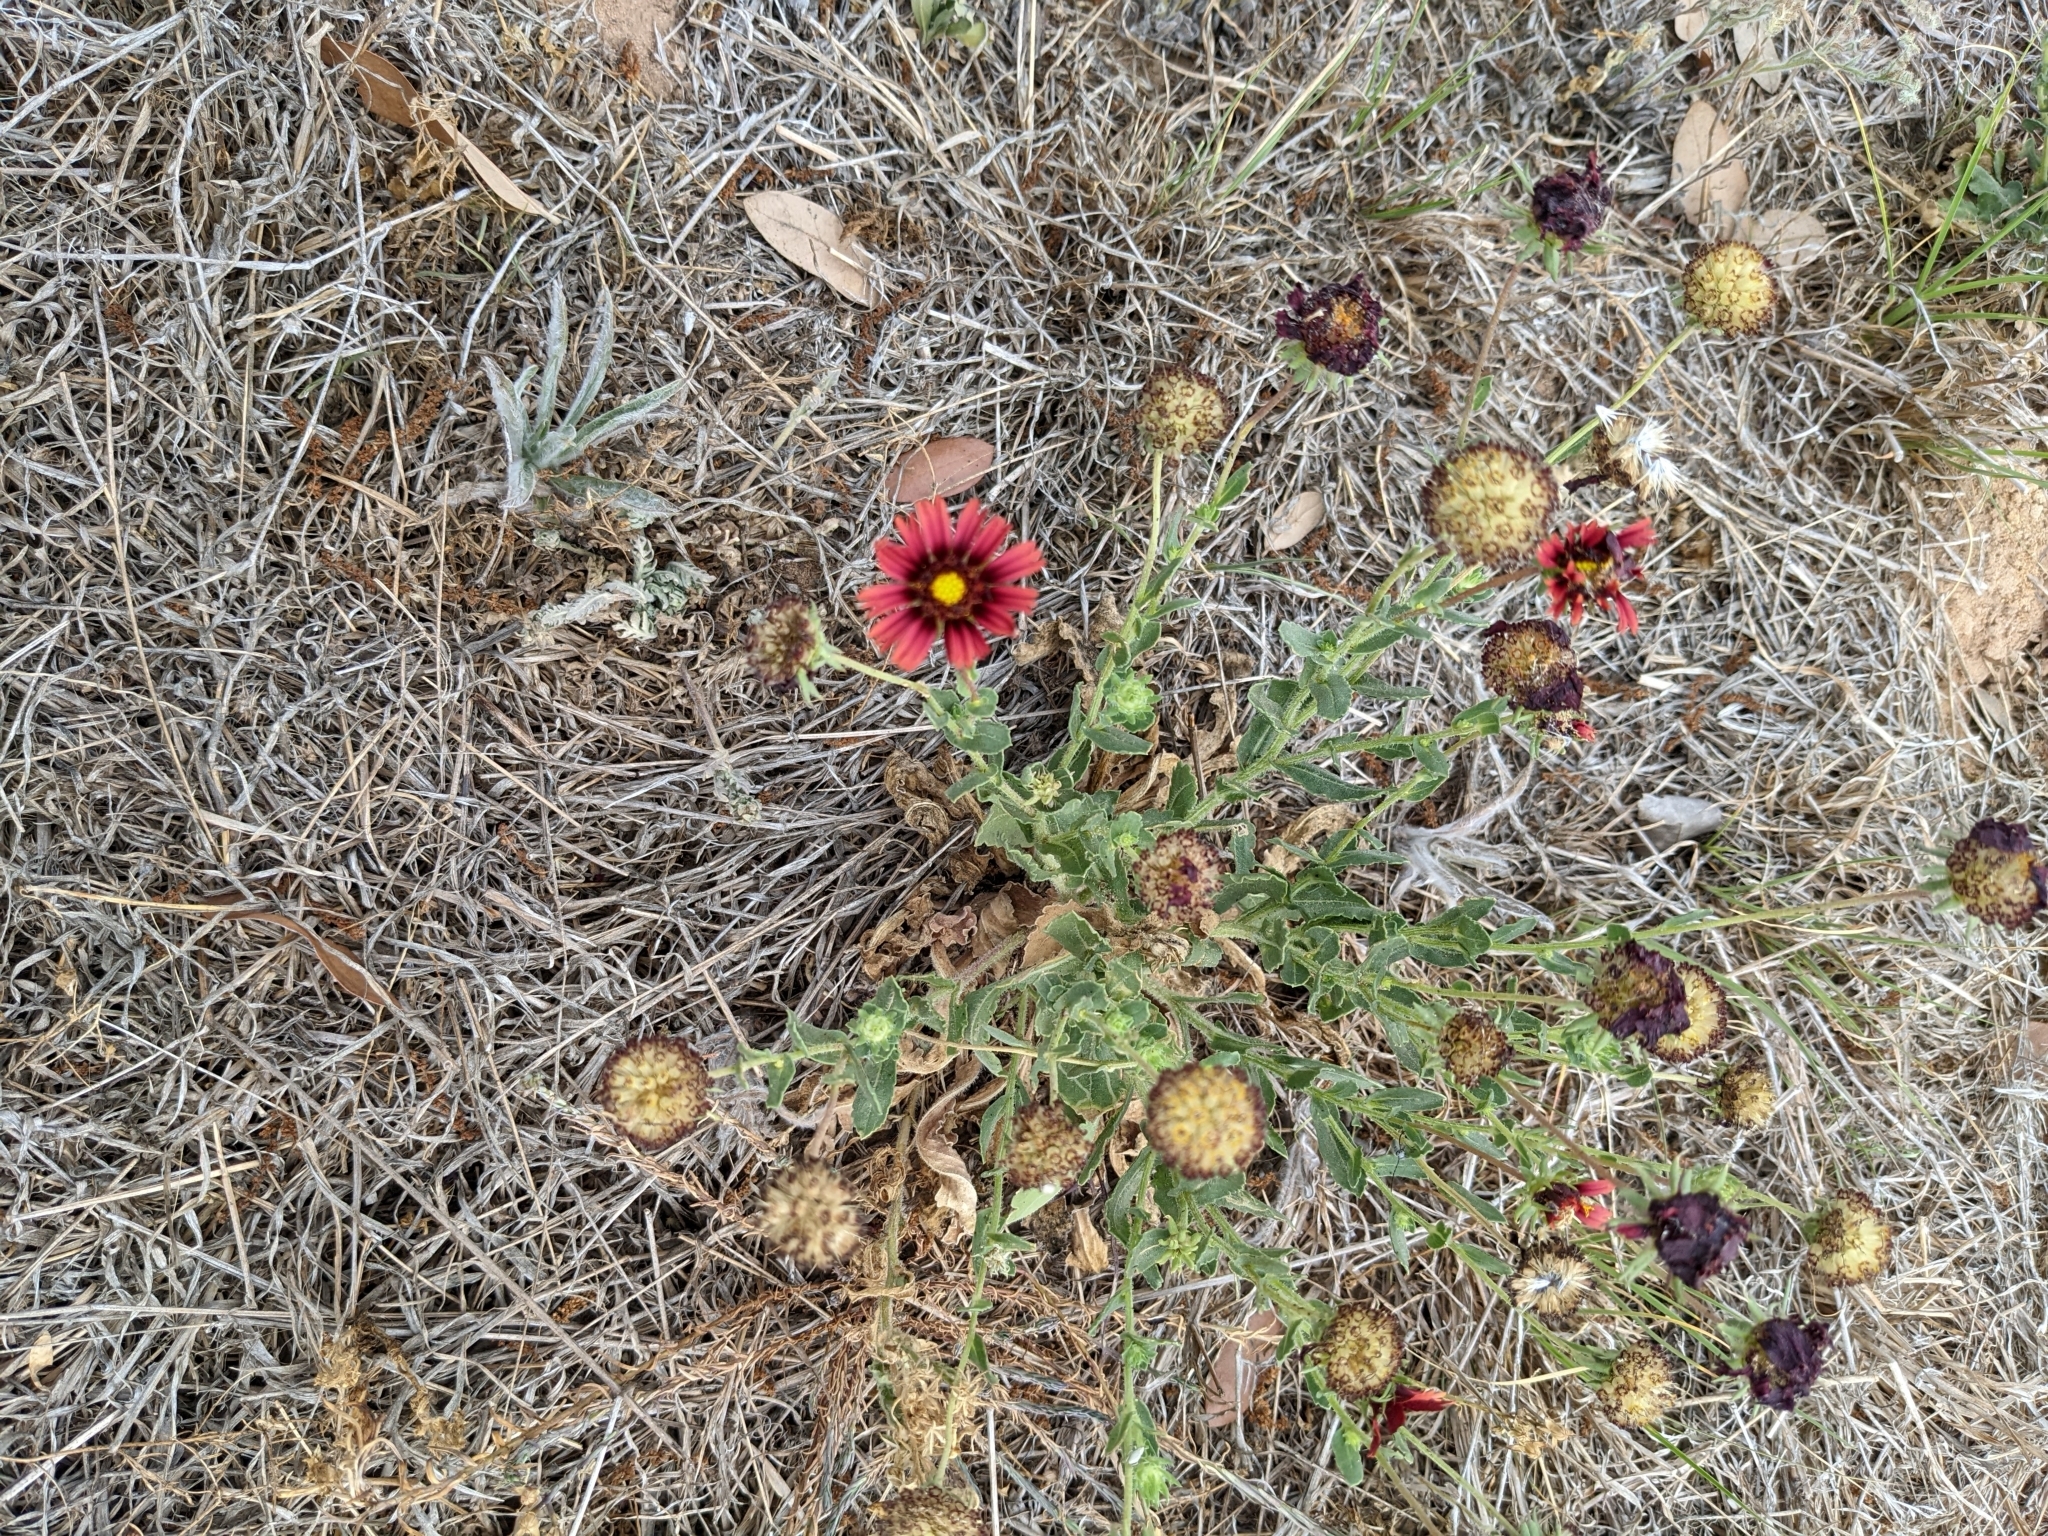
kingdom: Plantae
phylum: Tracheophyta
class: Magnoliopsida
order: Asterales
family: Asteraceae
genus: Gaillardia
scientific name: Gaillardia amblyodon
